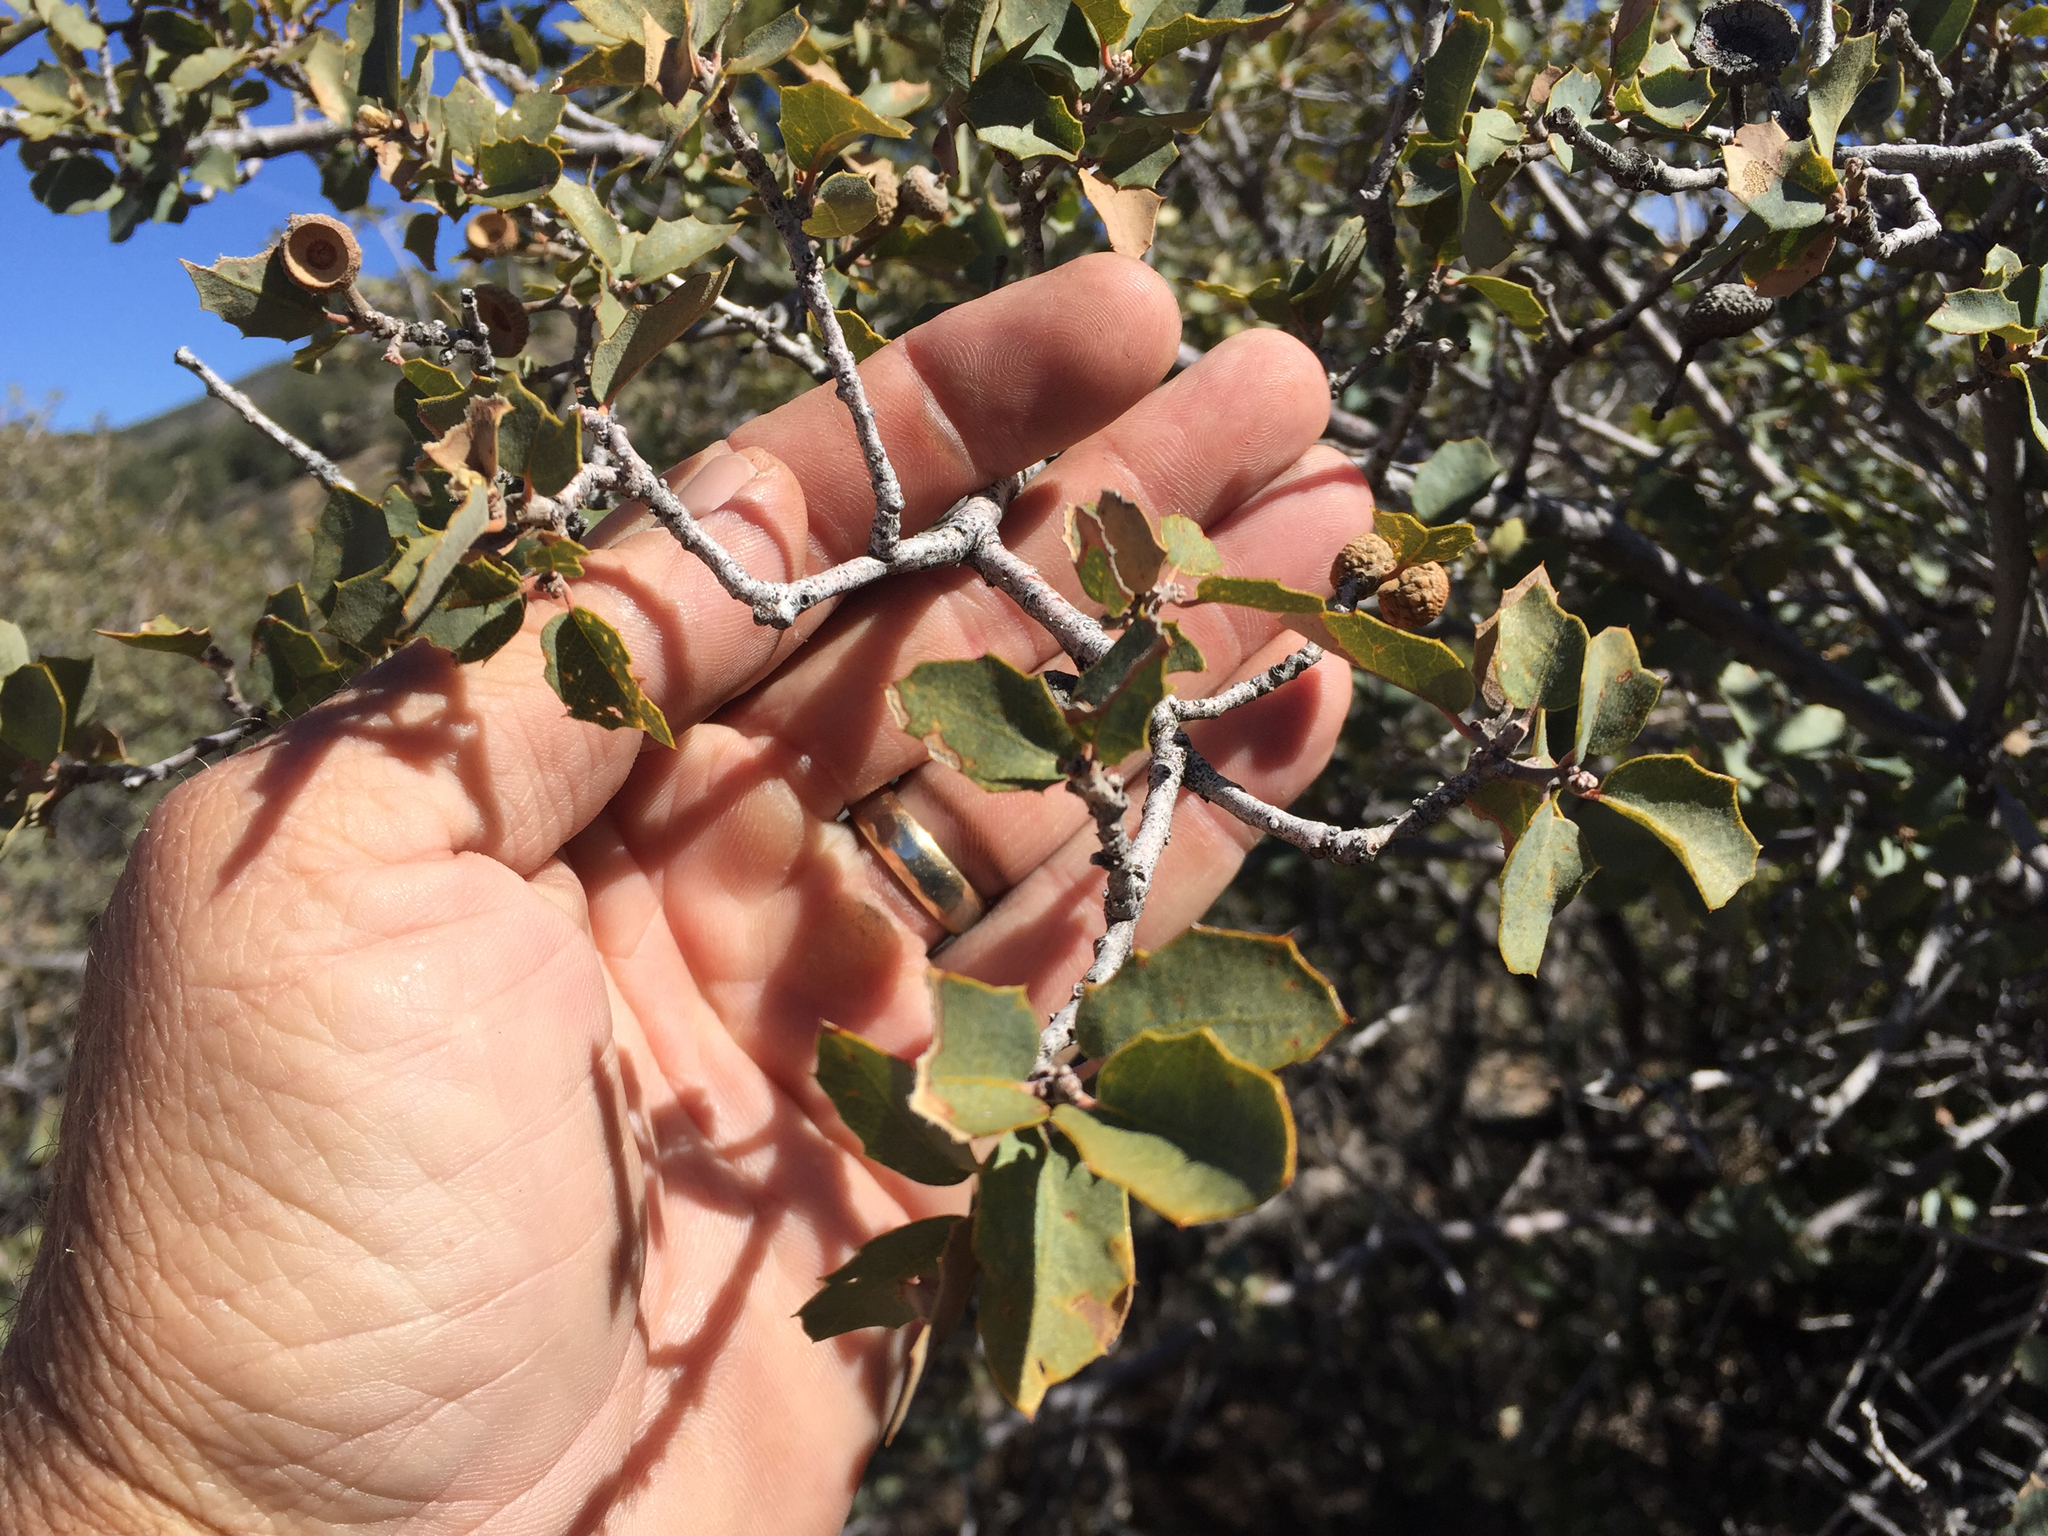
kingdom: Plantae
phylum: Tracheophyta
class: Magnoliopsida
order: Fagales
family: Fagaceae
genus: Quercus
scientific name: Quercus turbinella
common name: Sonoran scrub oak
